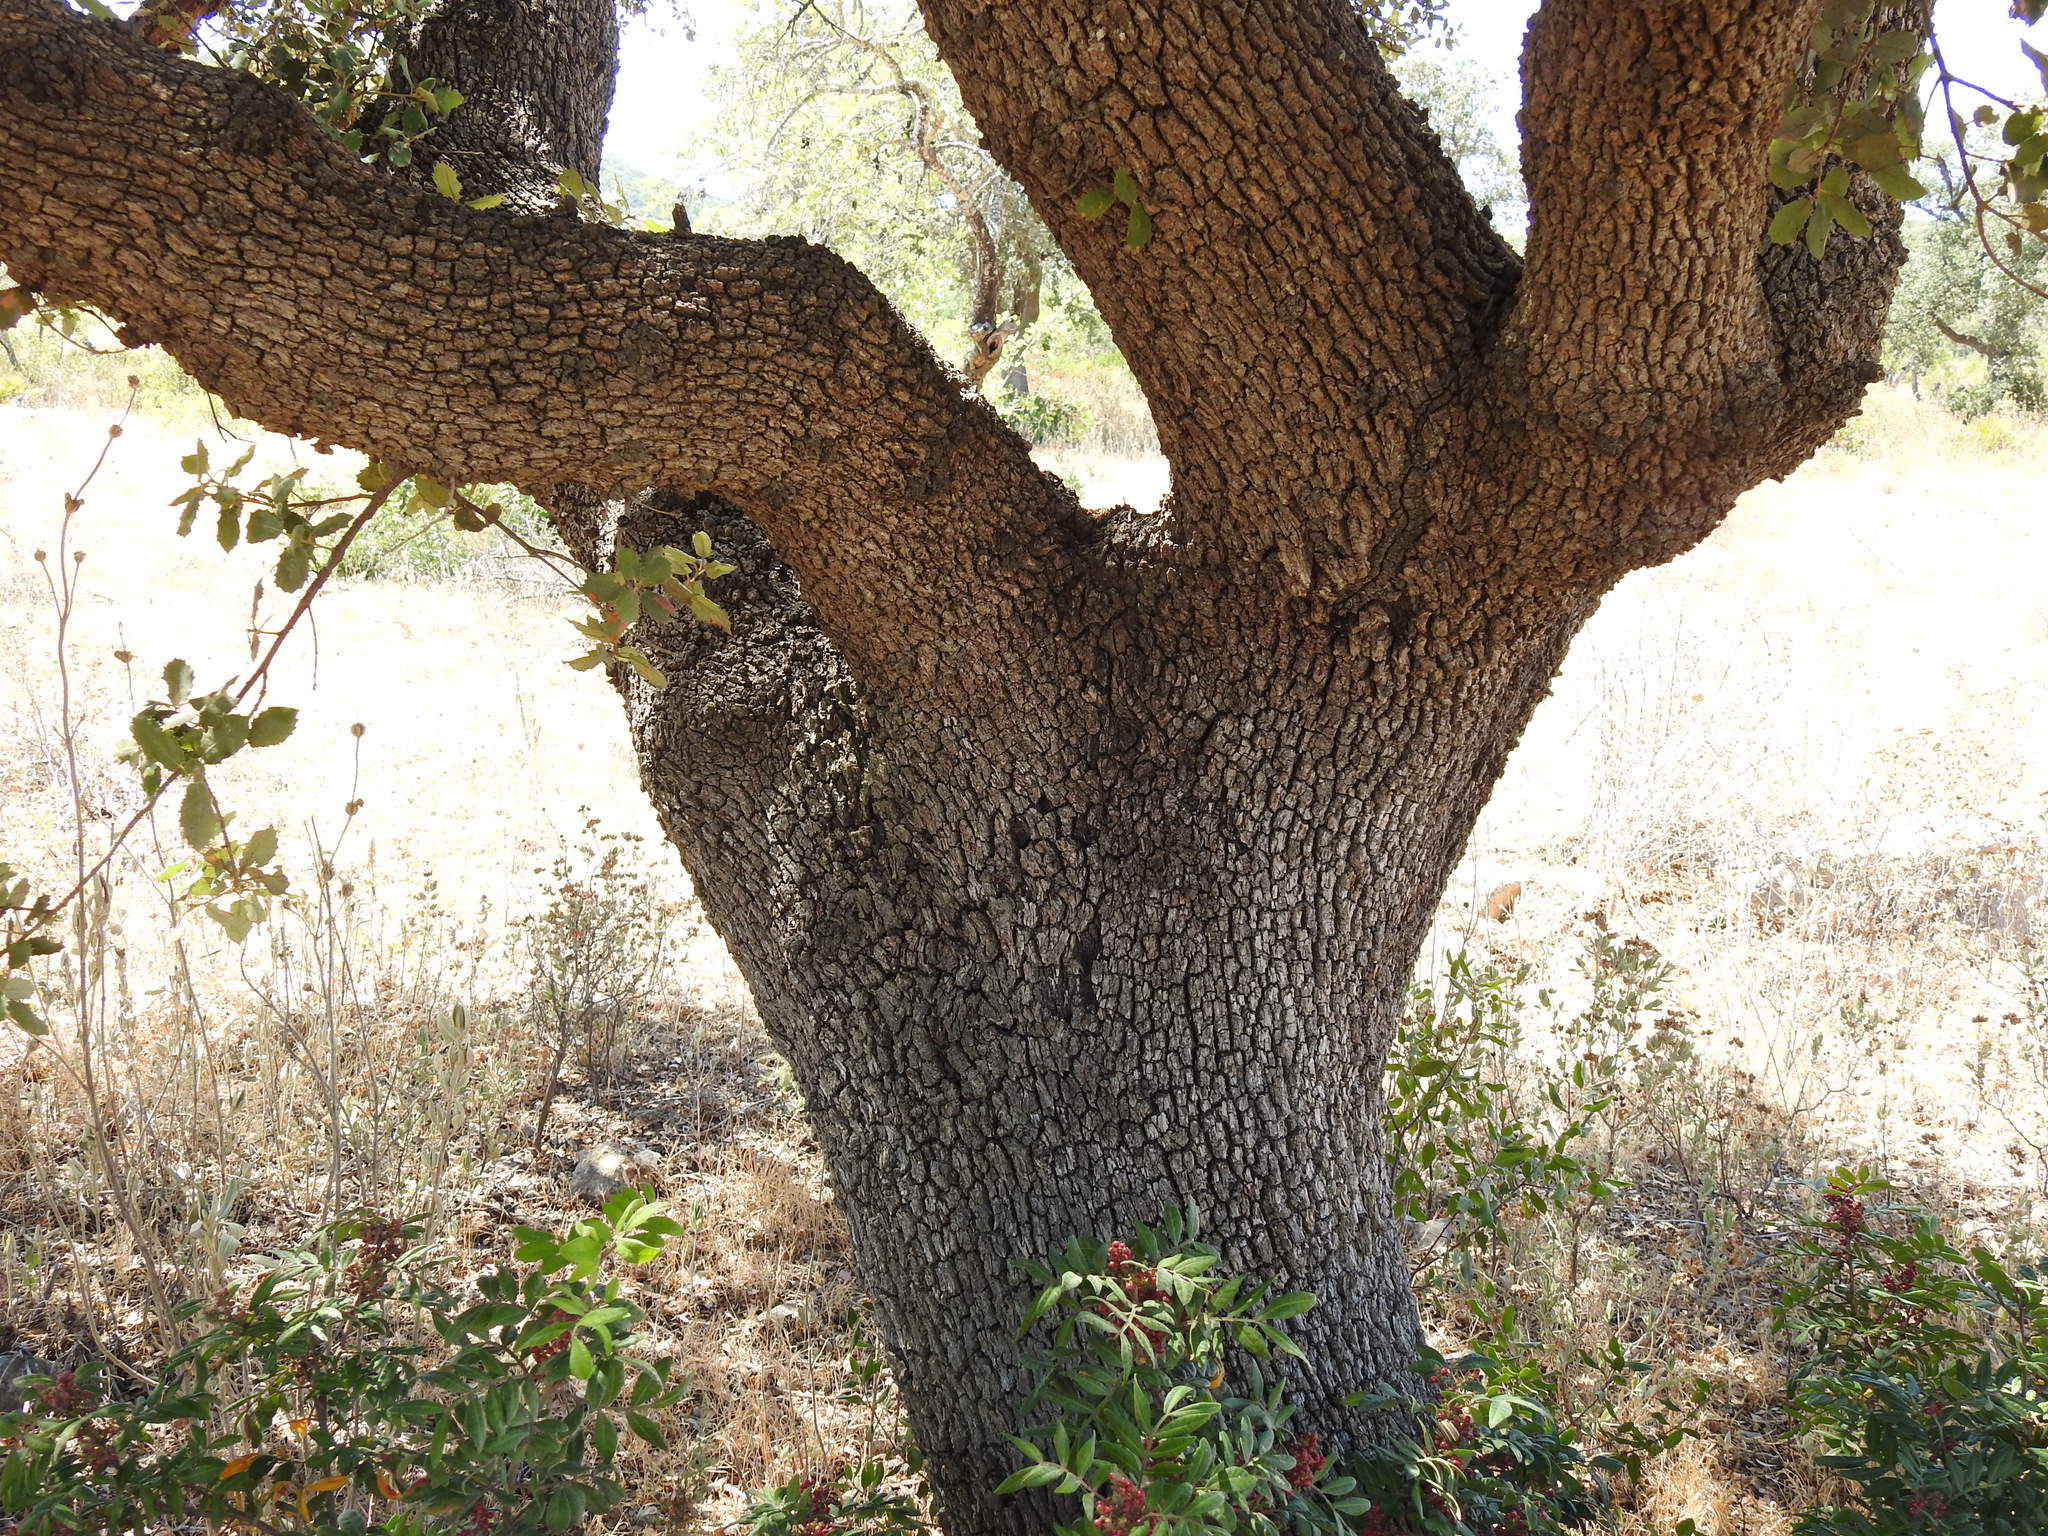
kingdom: Plantae
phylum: Tracheophyta
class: Magnoliopsida
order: Fagales
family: Fagaceae
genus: Quercus
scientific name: Quercus rotundifolia
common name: Holm oak
